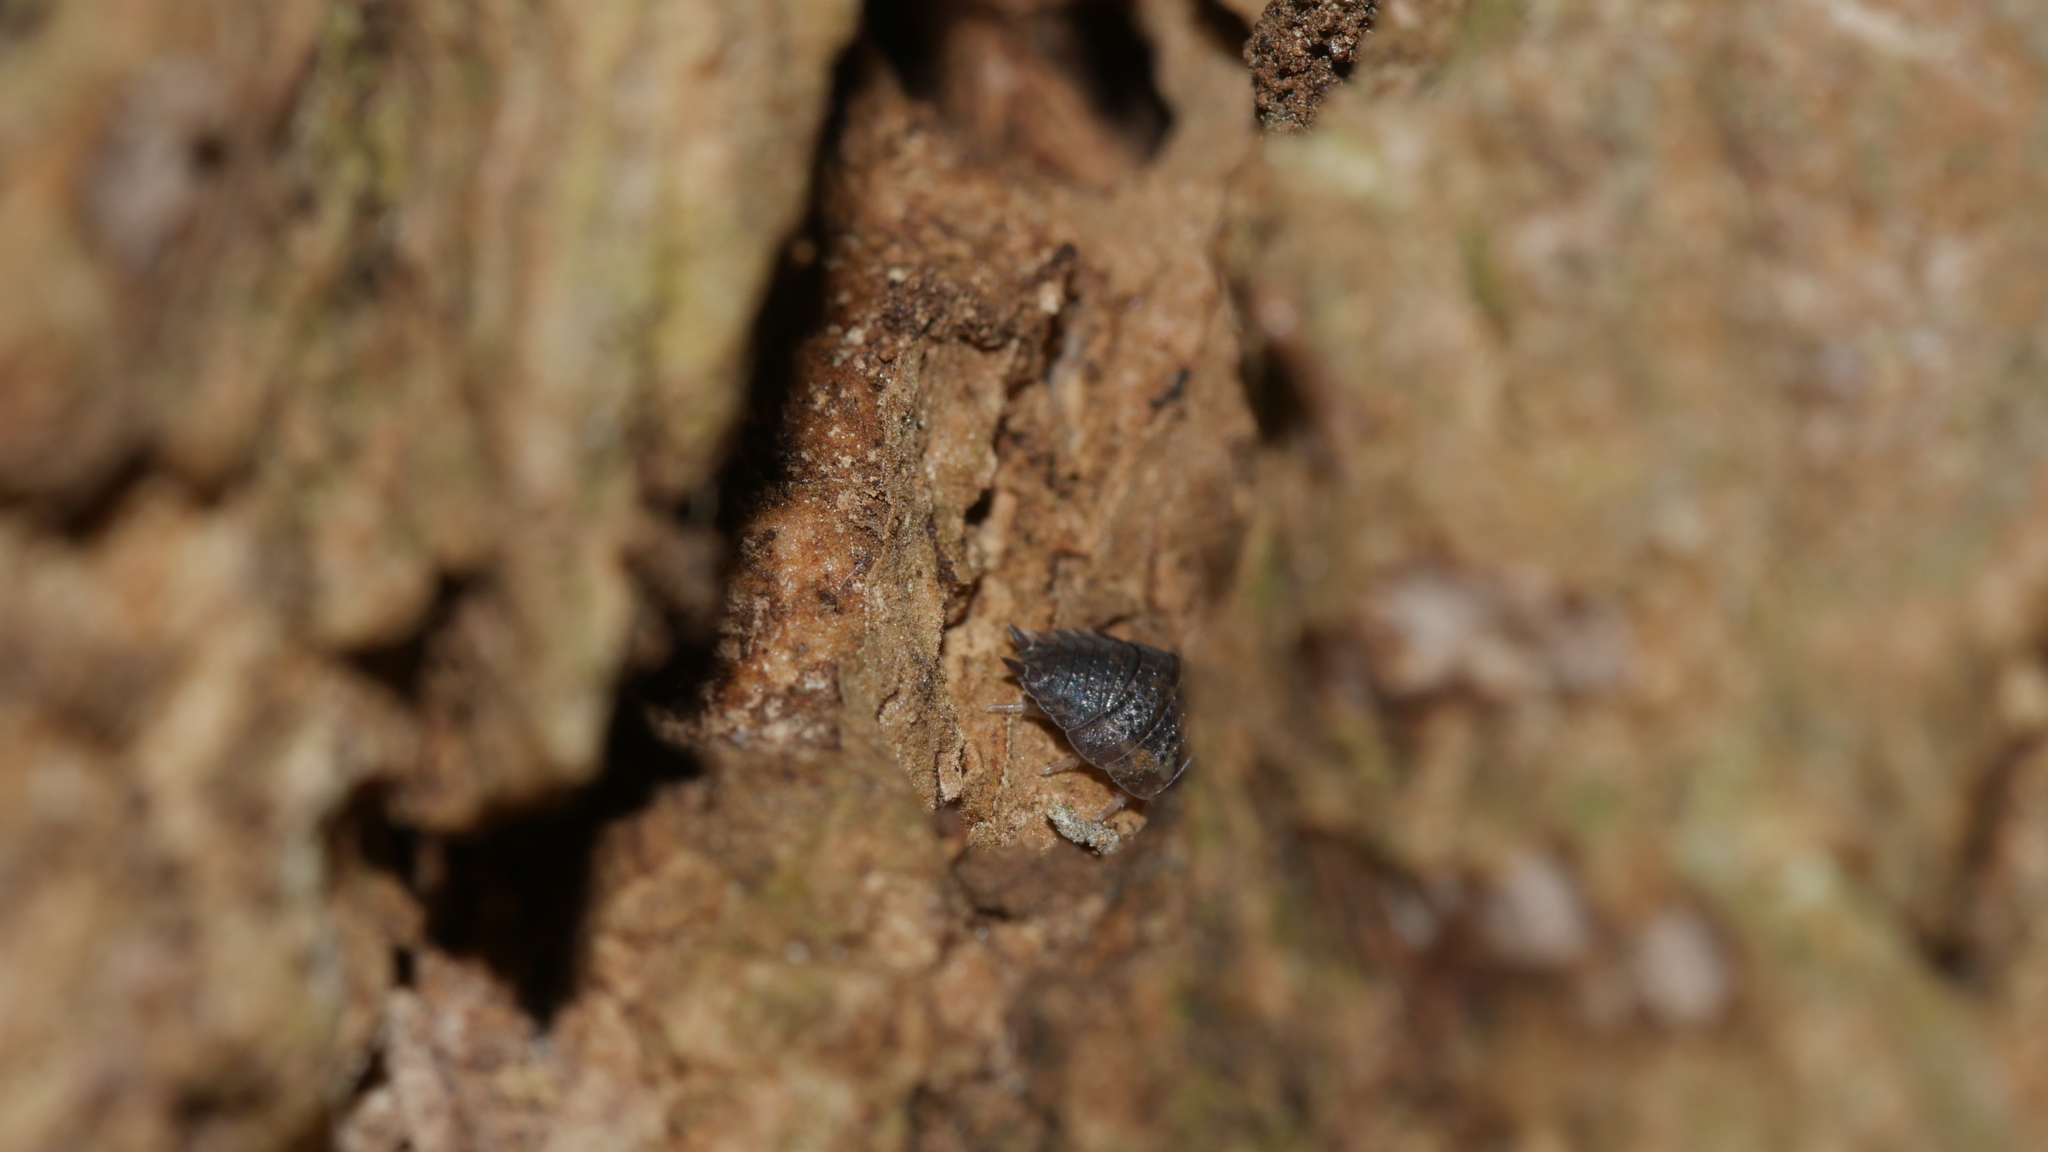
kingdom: Animalia
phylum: Arthropoda
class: Malacostraca
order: Isopoda
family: Porcellionidae
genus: Porcellio
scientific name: Porcellio scaber
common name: Common rough woodlouse
